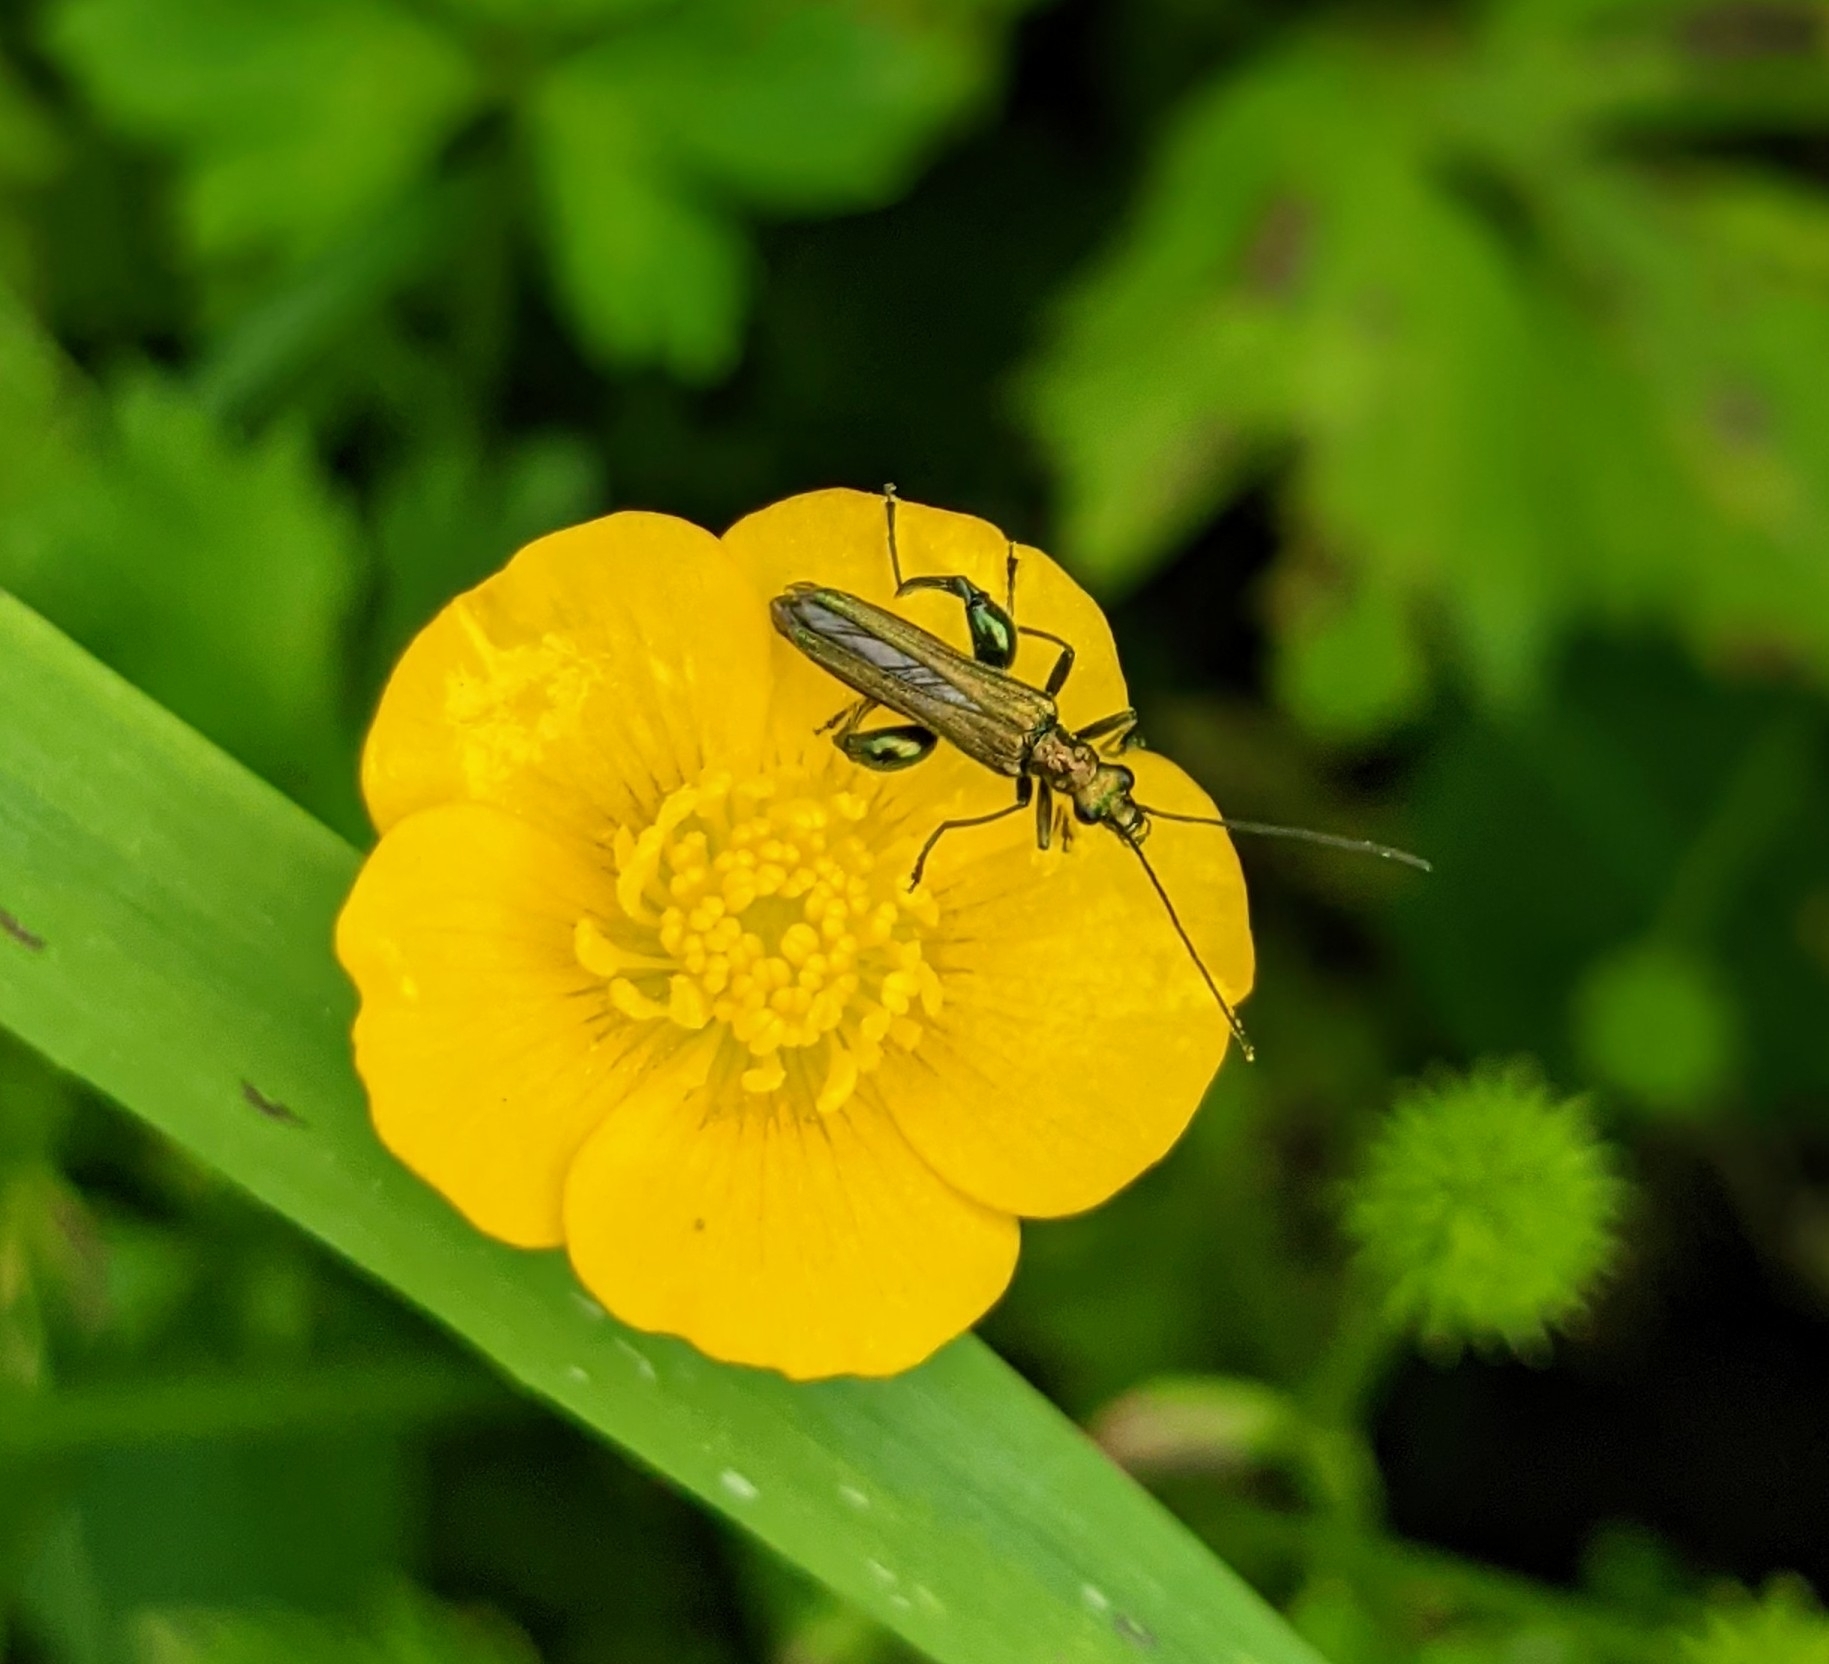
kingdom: Animalia
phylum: Arthropoda
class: Insecta
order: Coleoptera
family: Oedemeridae
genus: Oedemera
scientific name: Oedemera nobilis
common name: Swollen-thighed beetle
